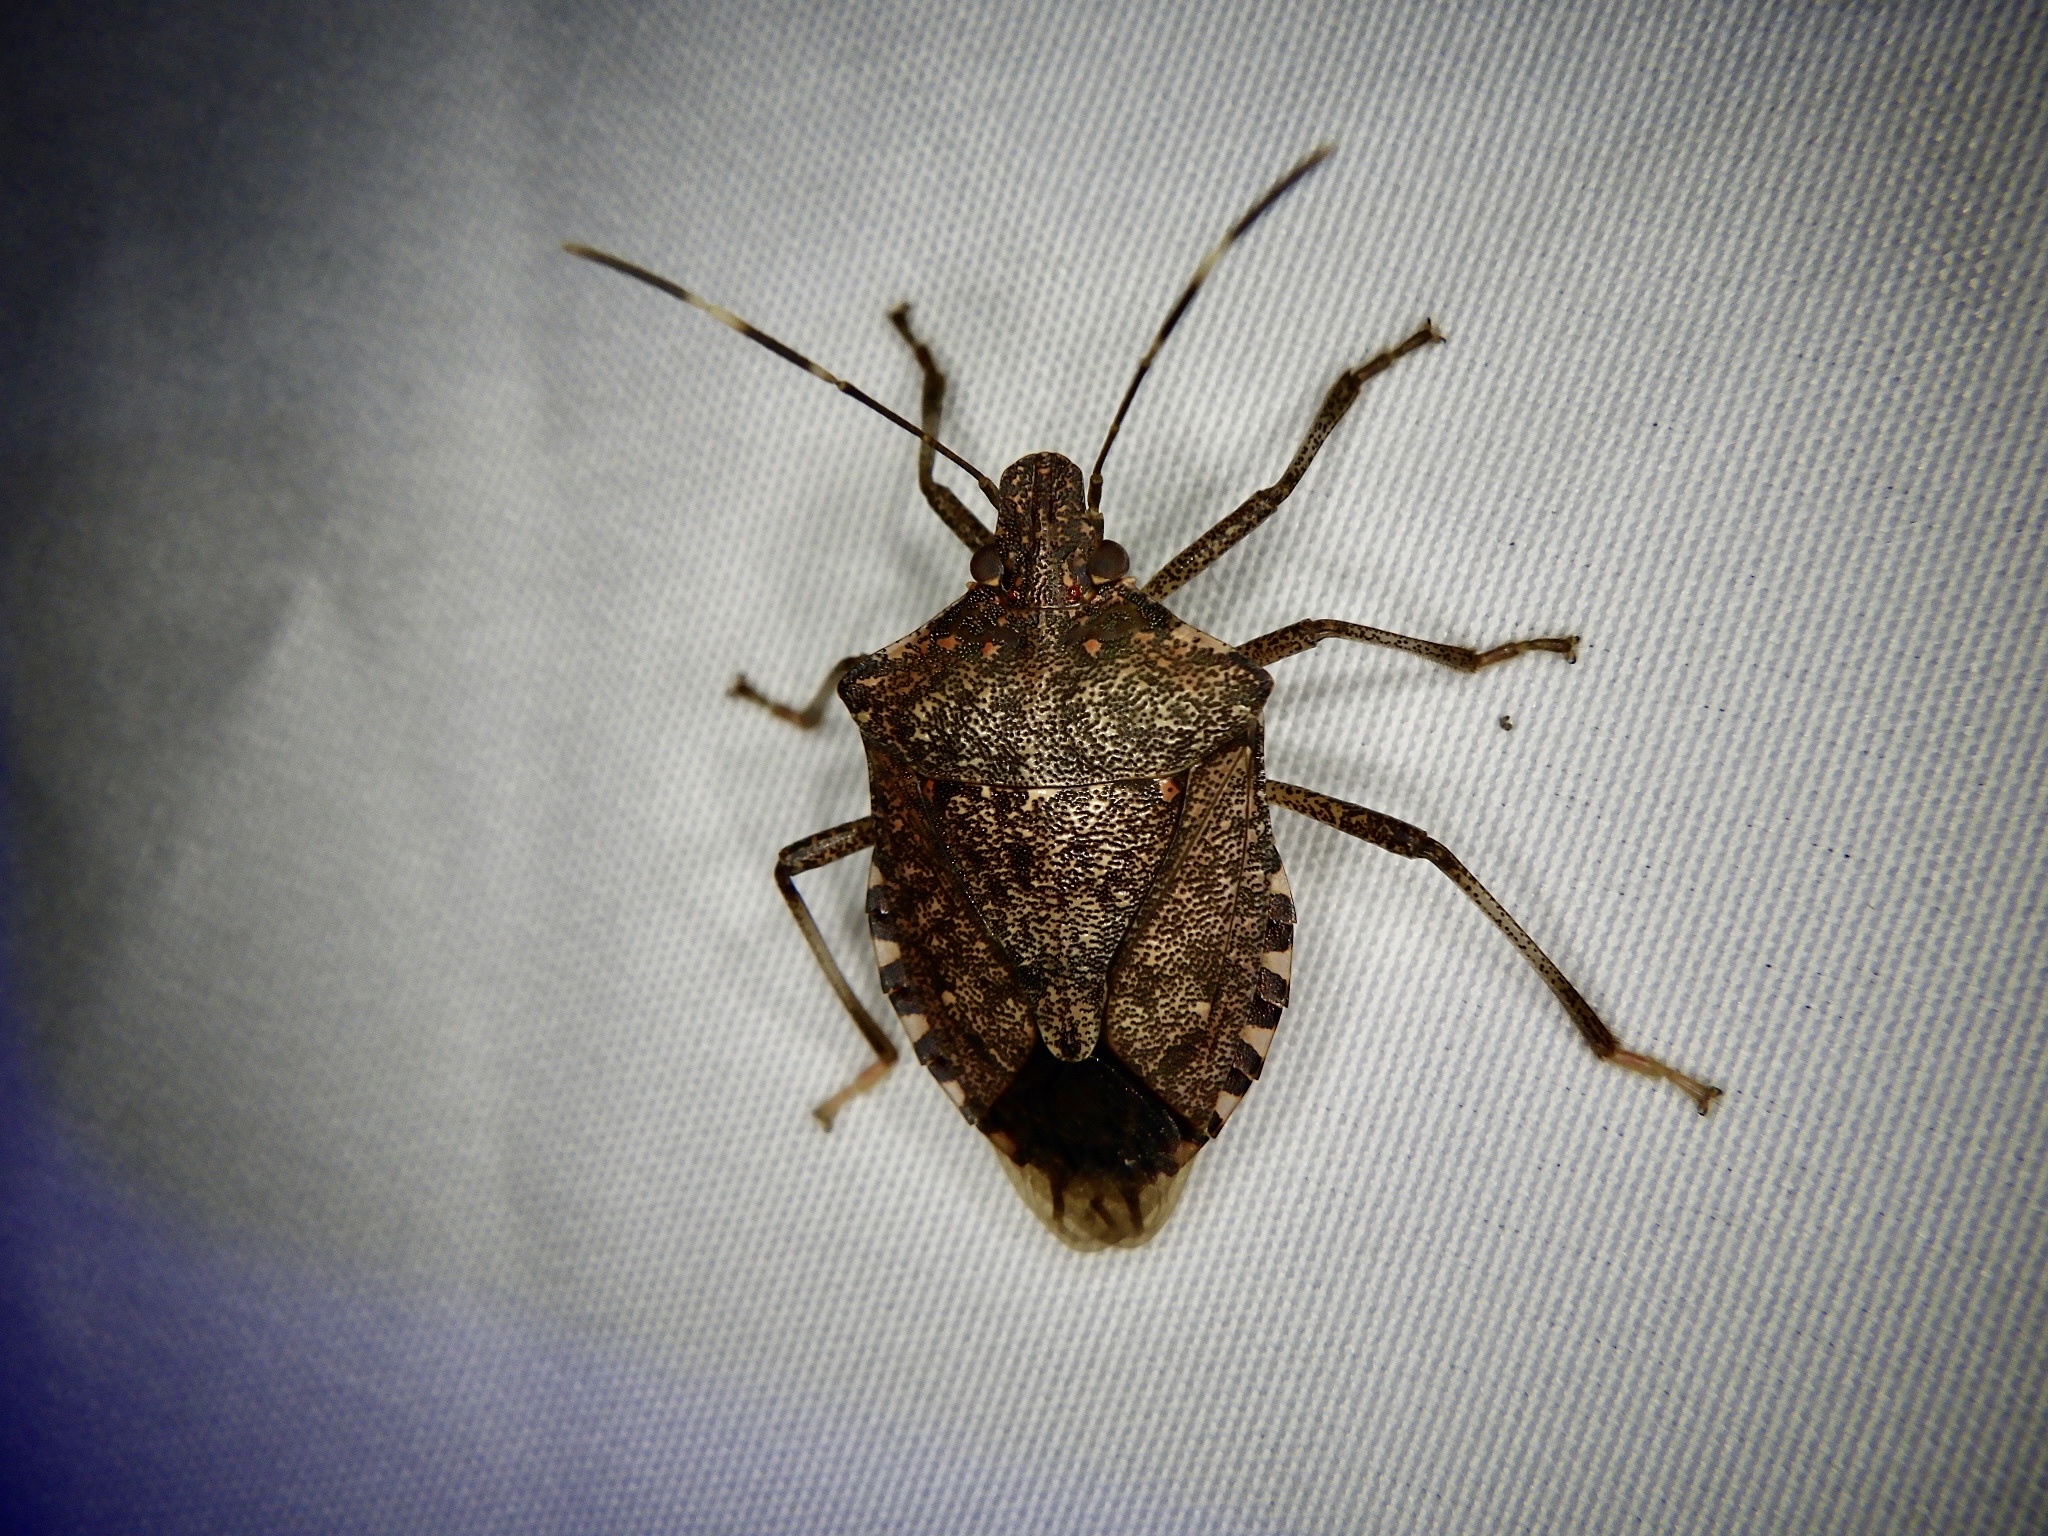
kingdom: Animalia
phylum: Arthropoda
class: Insecta
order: Hemiptera
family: Pentatomidae
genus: Halyomorpha
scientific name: Halyomorpha halys
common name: Brown marmorated stink bug
